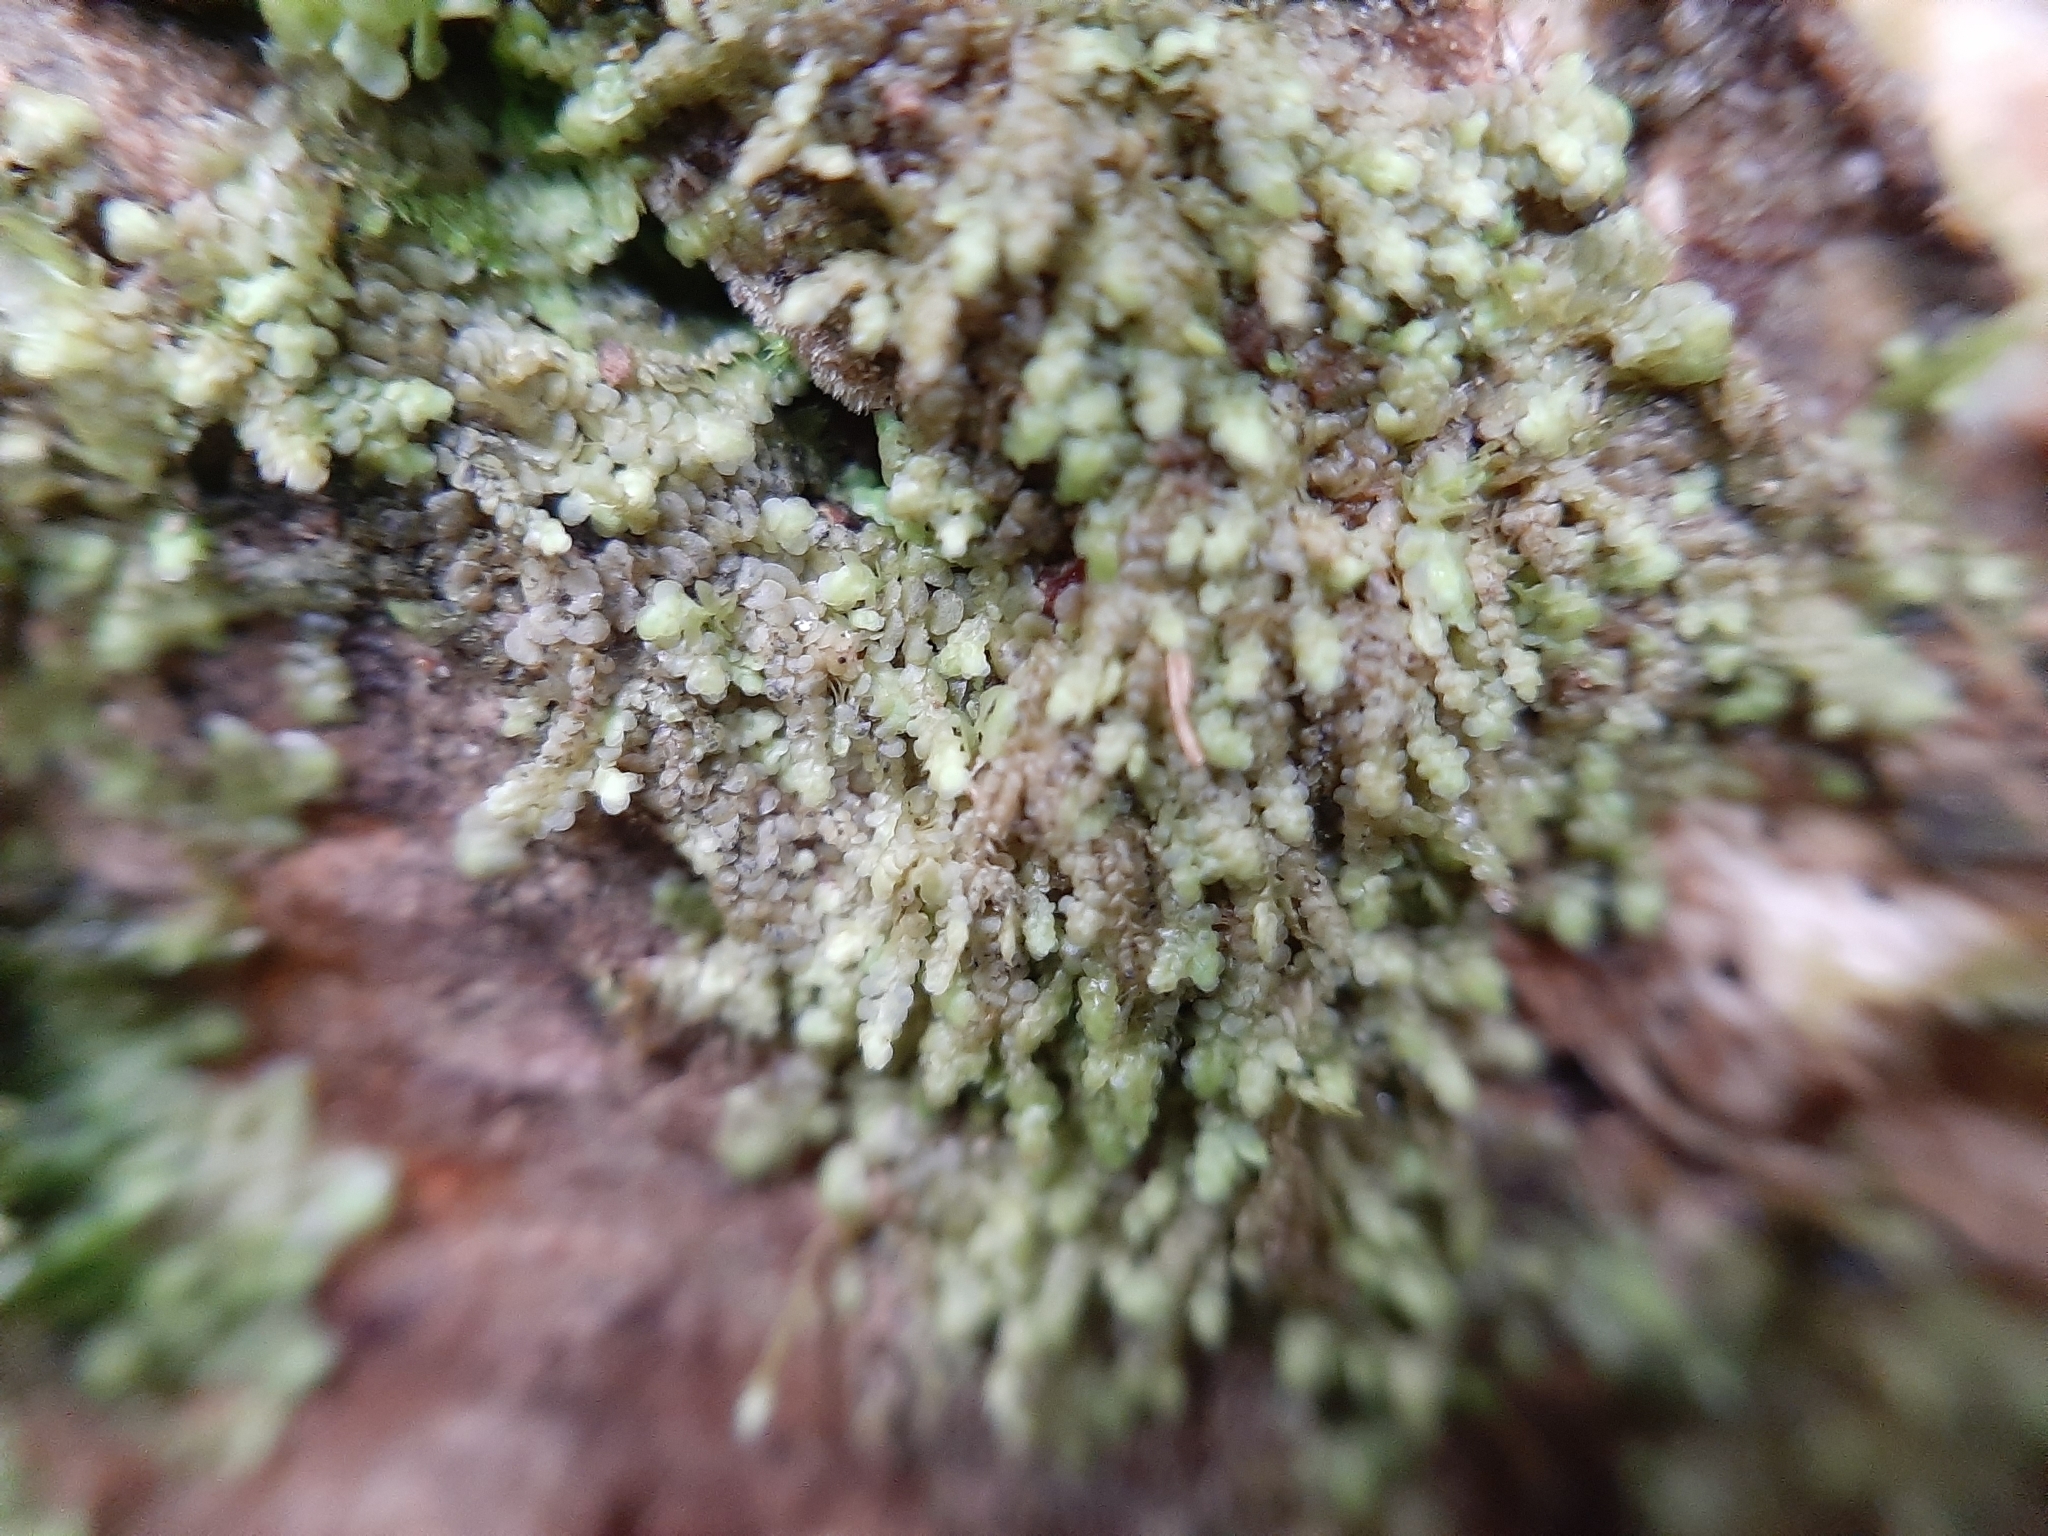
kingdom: Plantae
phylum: Marchantiophyta
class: Jungermanniopsida
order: Porellales
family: Radulaceae
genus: Radula
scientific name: Radula demissa
